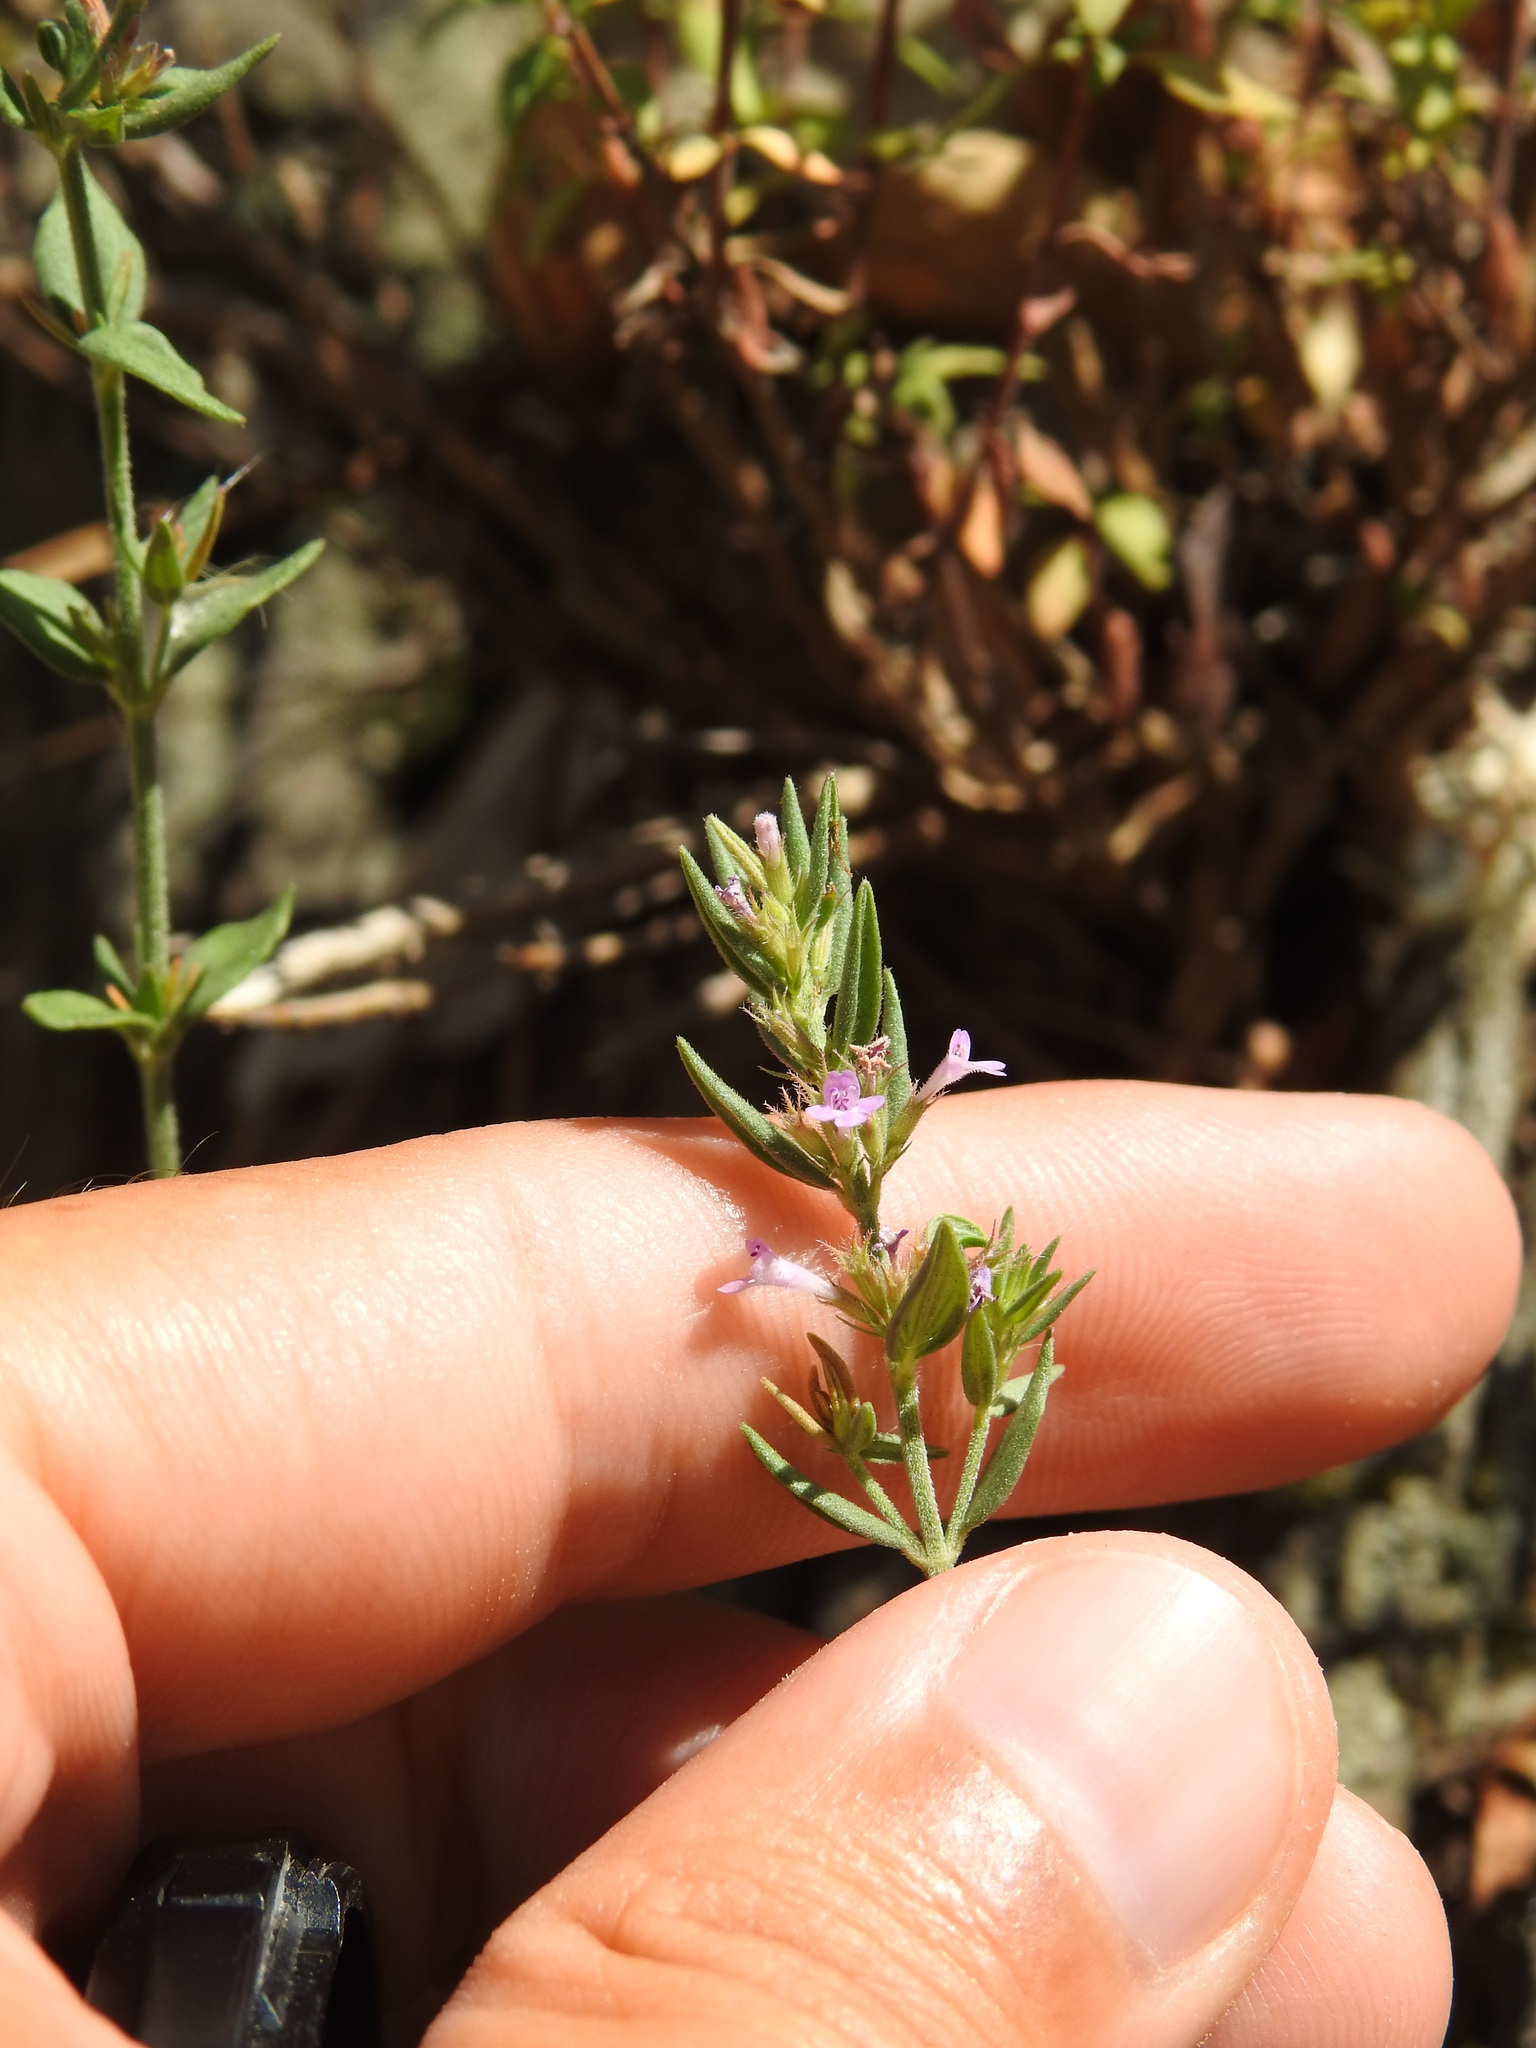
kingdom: Plantae
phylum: Tracheophyta
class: Magnoliopsida
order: Lamiales
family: Lamiaceae
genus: Micromeria
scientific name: Micromeria graeca
